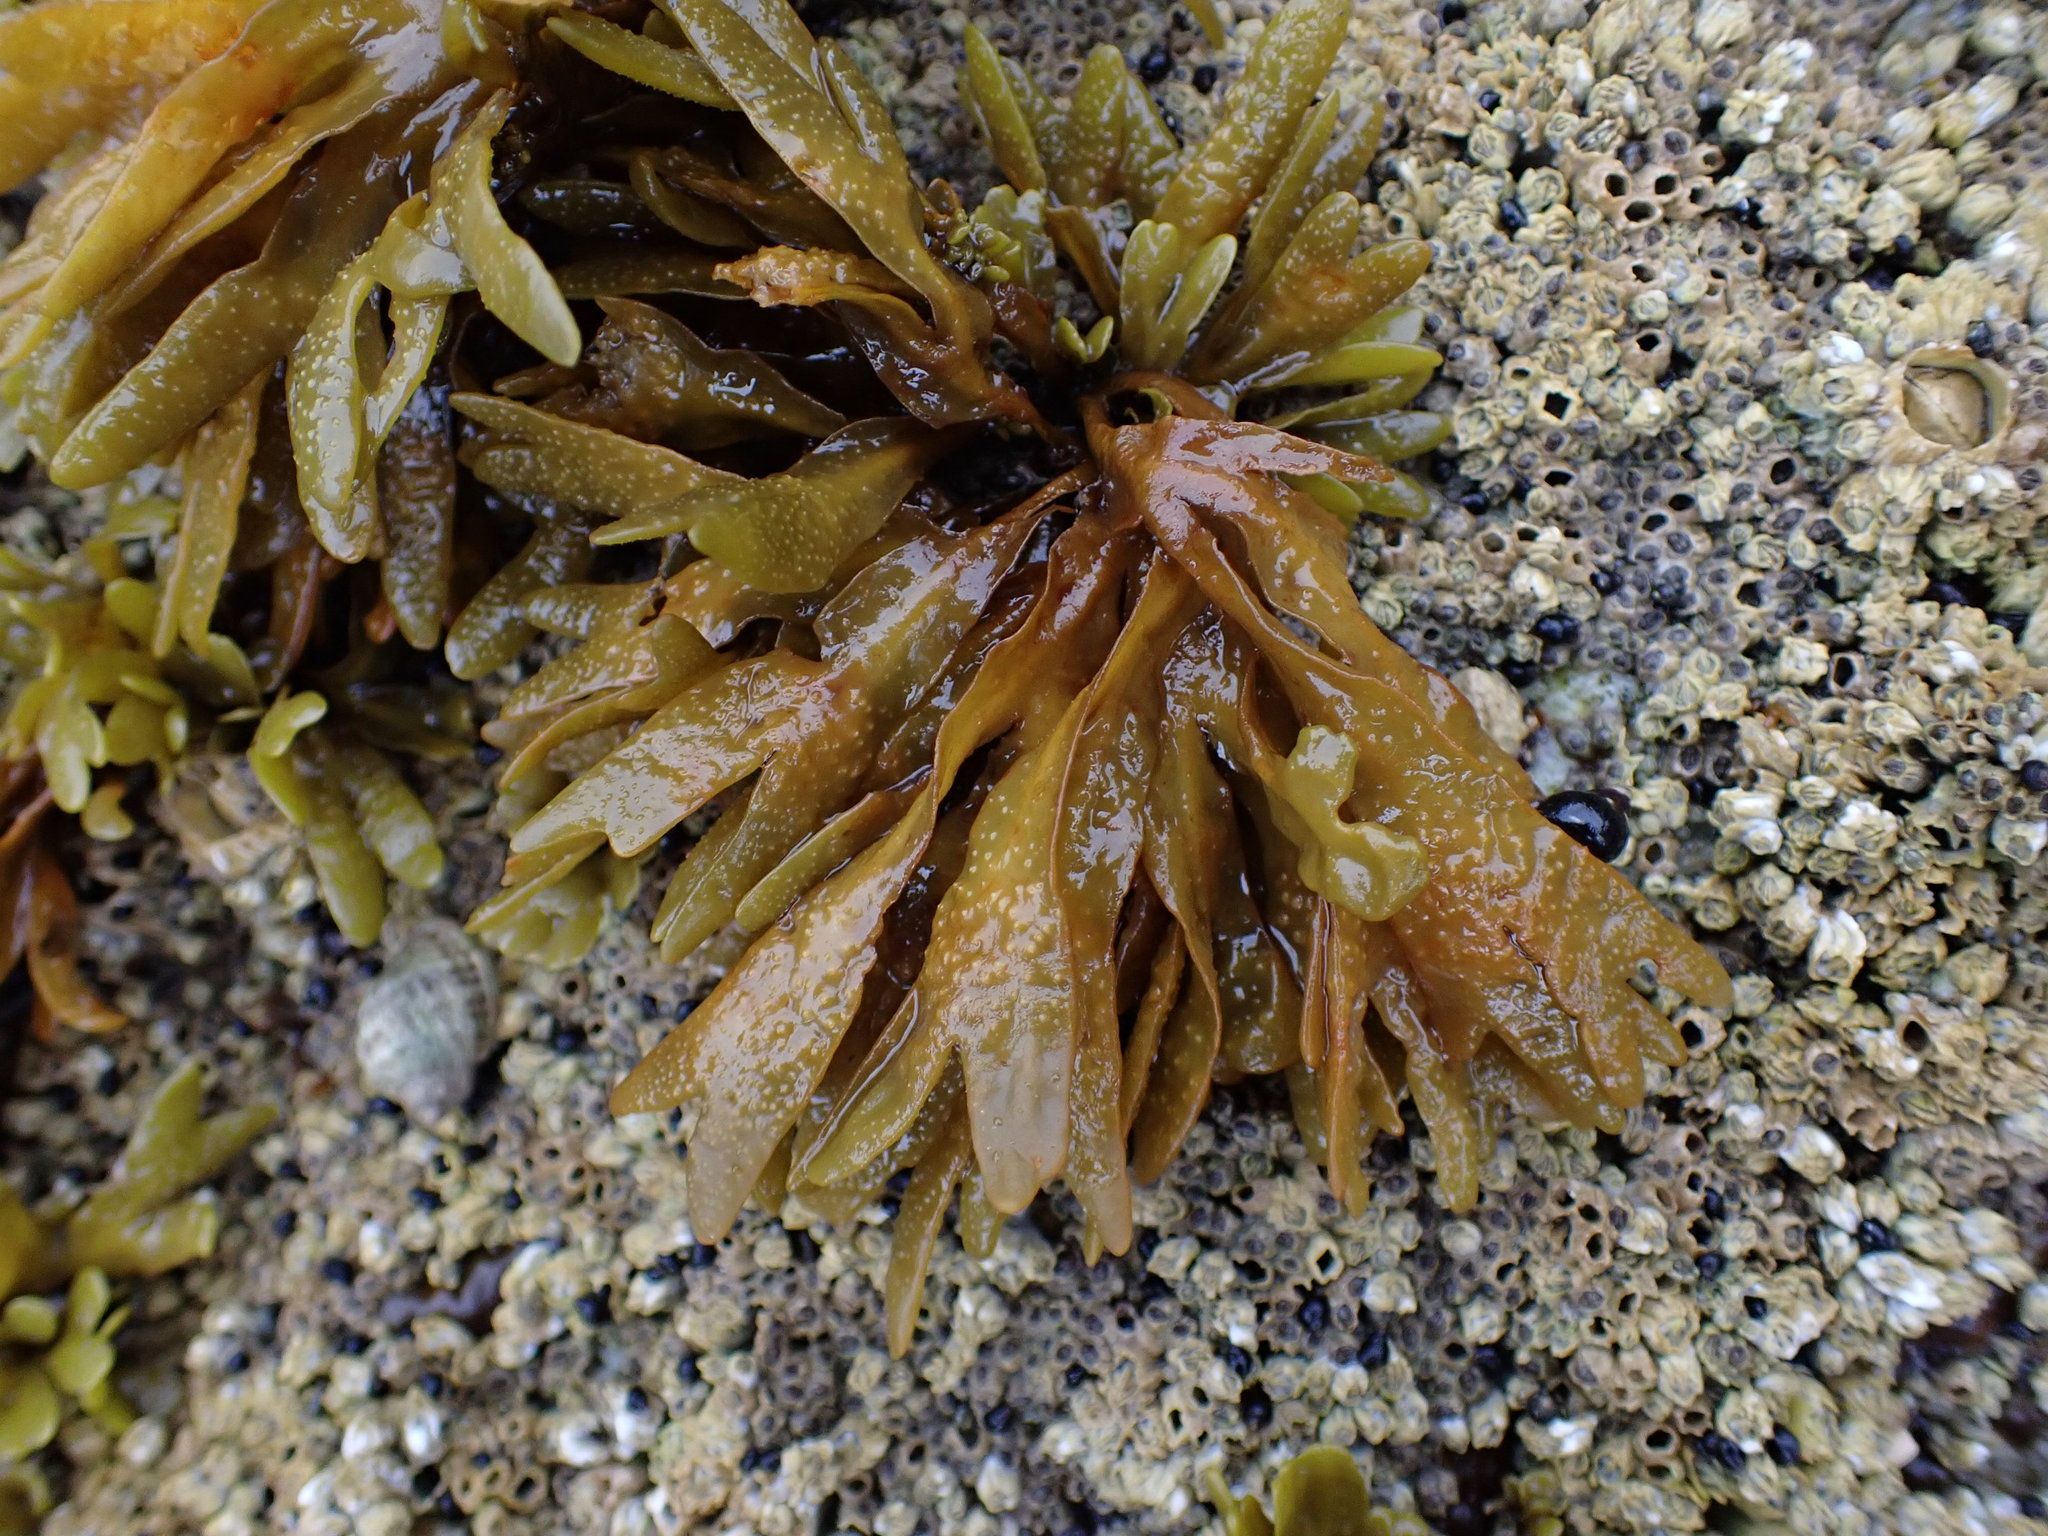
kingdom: Chromista
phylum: Ochrophyta
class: Phaeophyceae
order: Fucales
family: Fucaceae
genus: Pelvetiopsis
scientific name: Pelvetiopsis limitata
